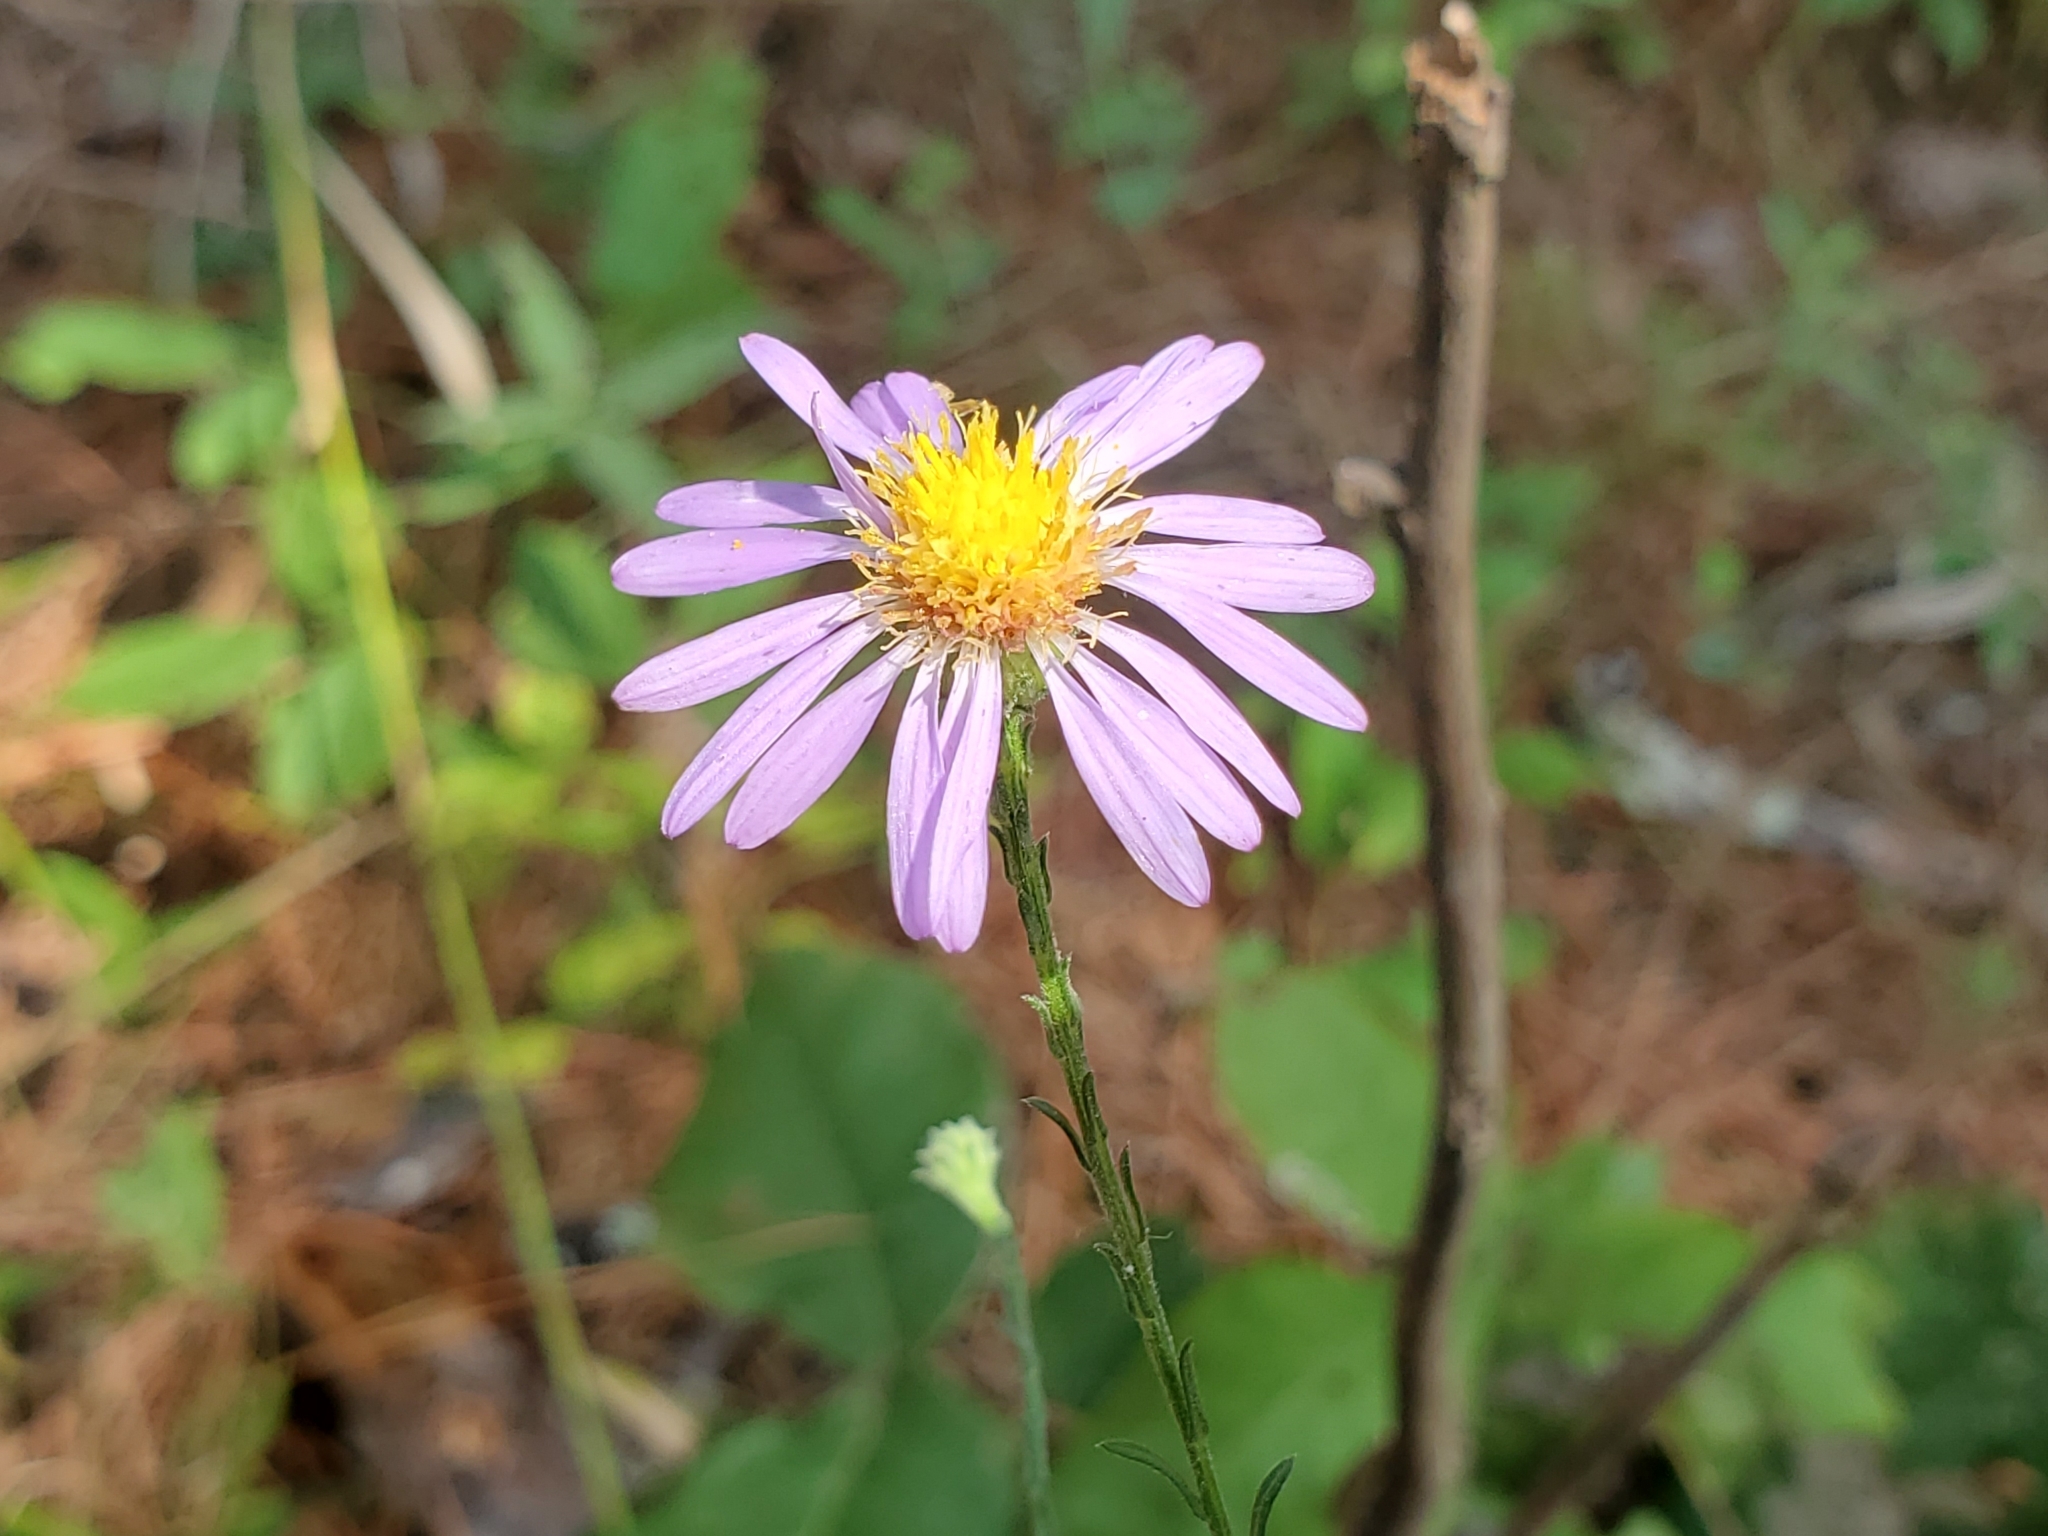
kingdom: Plantae
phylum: Tracheophyta
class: Magnoliopsida
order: Asterales
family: Asteraceae
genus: Symphyotrichum
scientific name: Symphyotrichum patens
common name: Late purple aster
